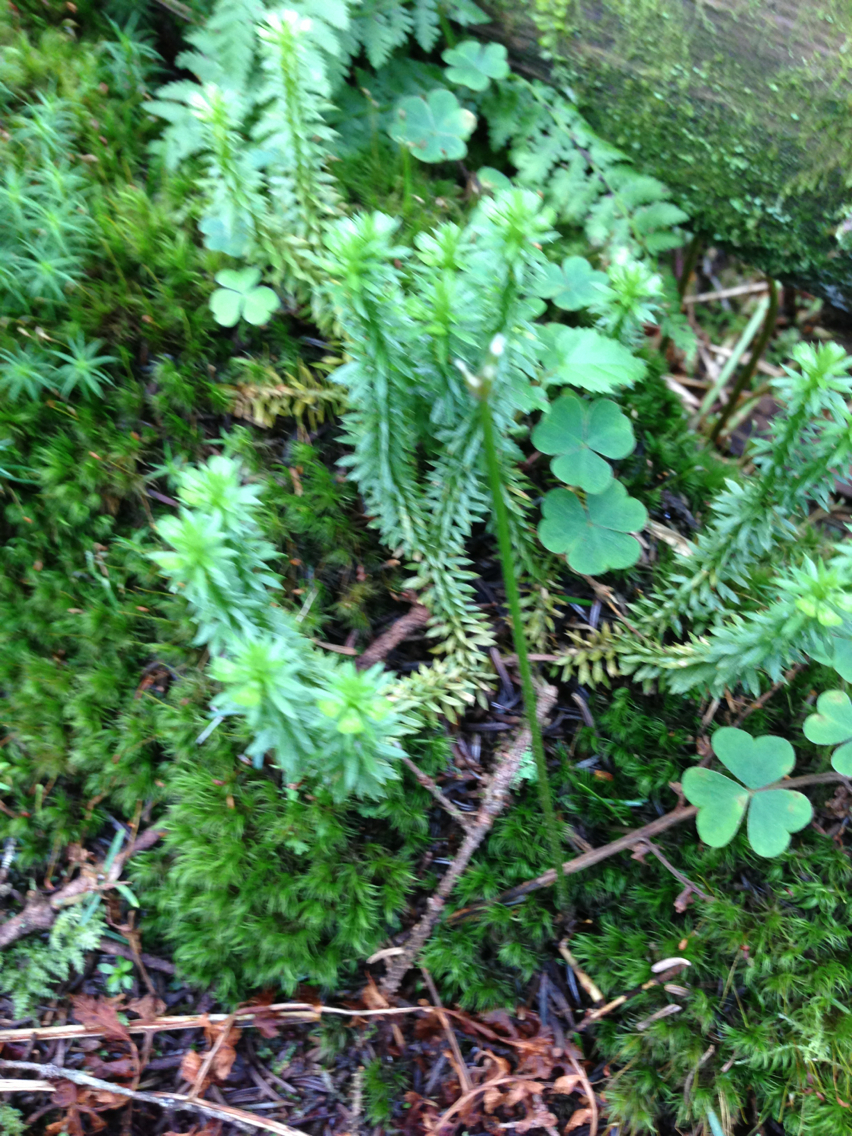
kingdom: Plantae
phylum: Tracheophyta
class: Lycopodiopsida
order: Lycopodiales
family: Lycopodiaceae
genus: Huperzia
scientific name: Huperzia lucidula
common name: Shining clubmoss
